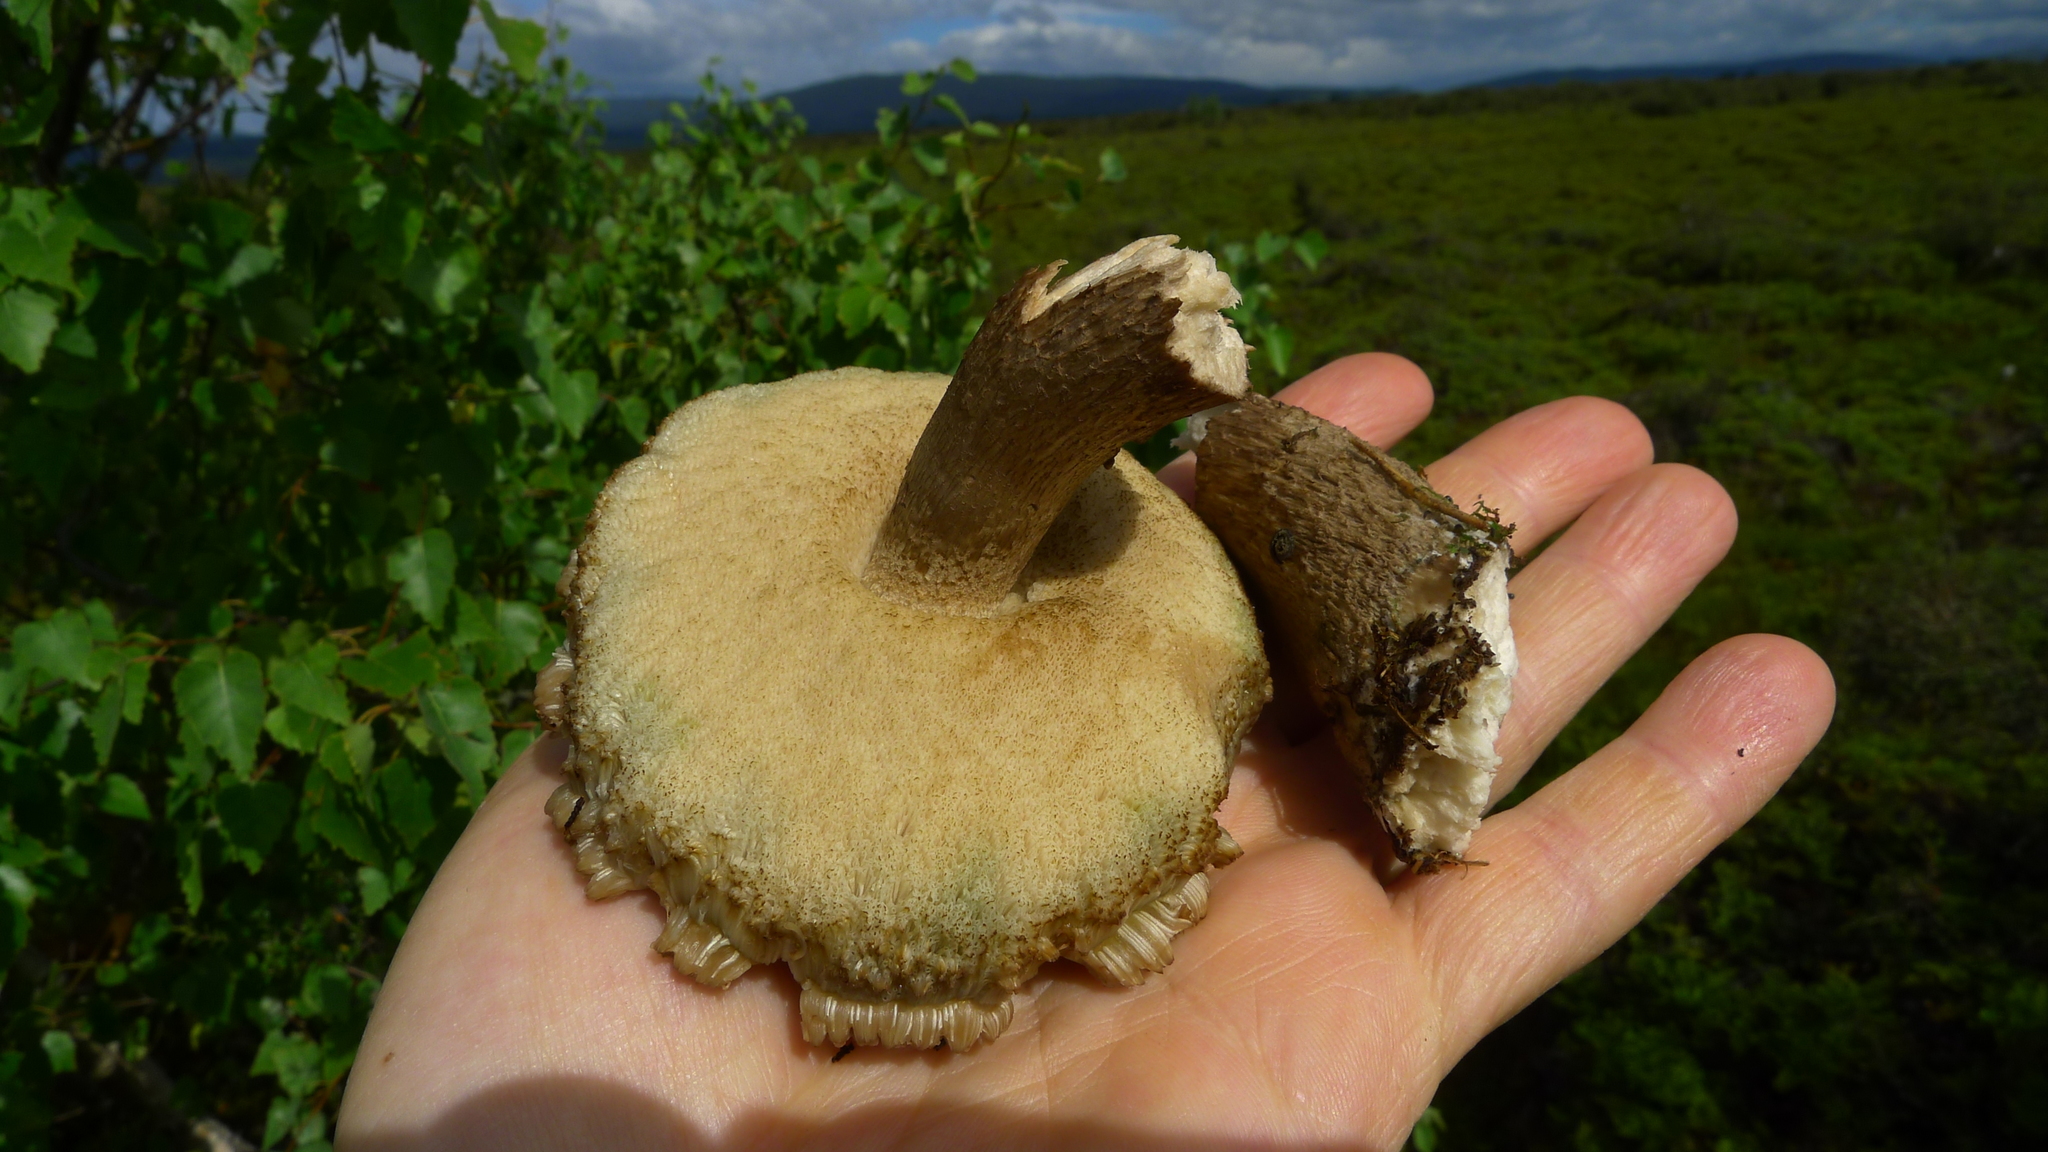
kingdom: Fungi
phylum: Basidiomycota
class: Agaricomycetes
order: Boletales
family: Boletaceae
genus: Leccinum
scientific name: Leccinum scabrum
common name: Blushing bolete
